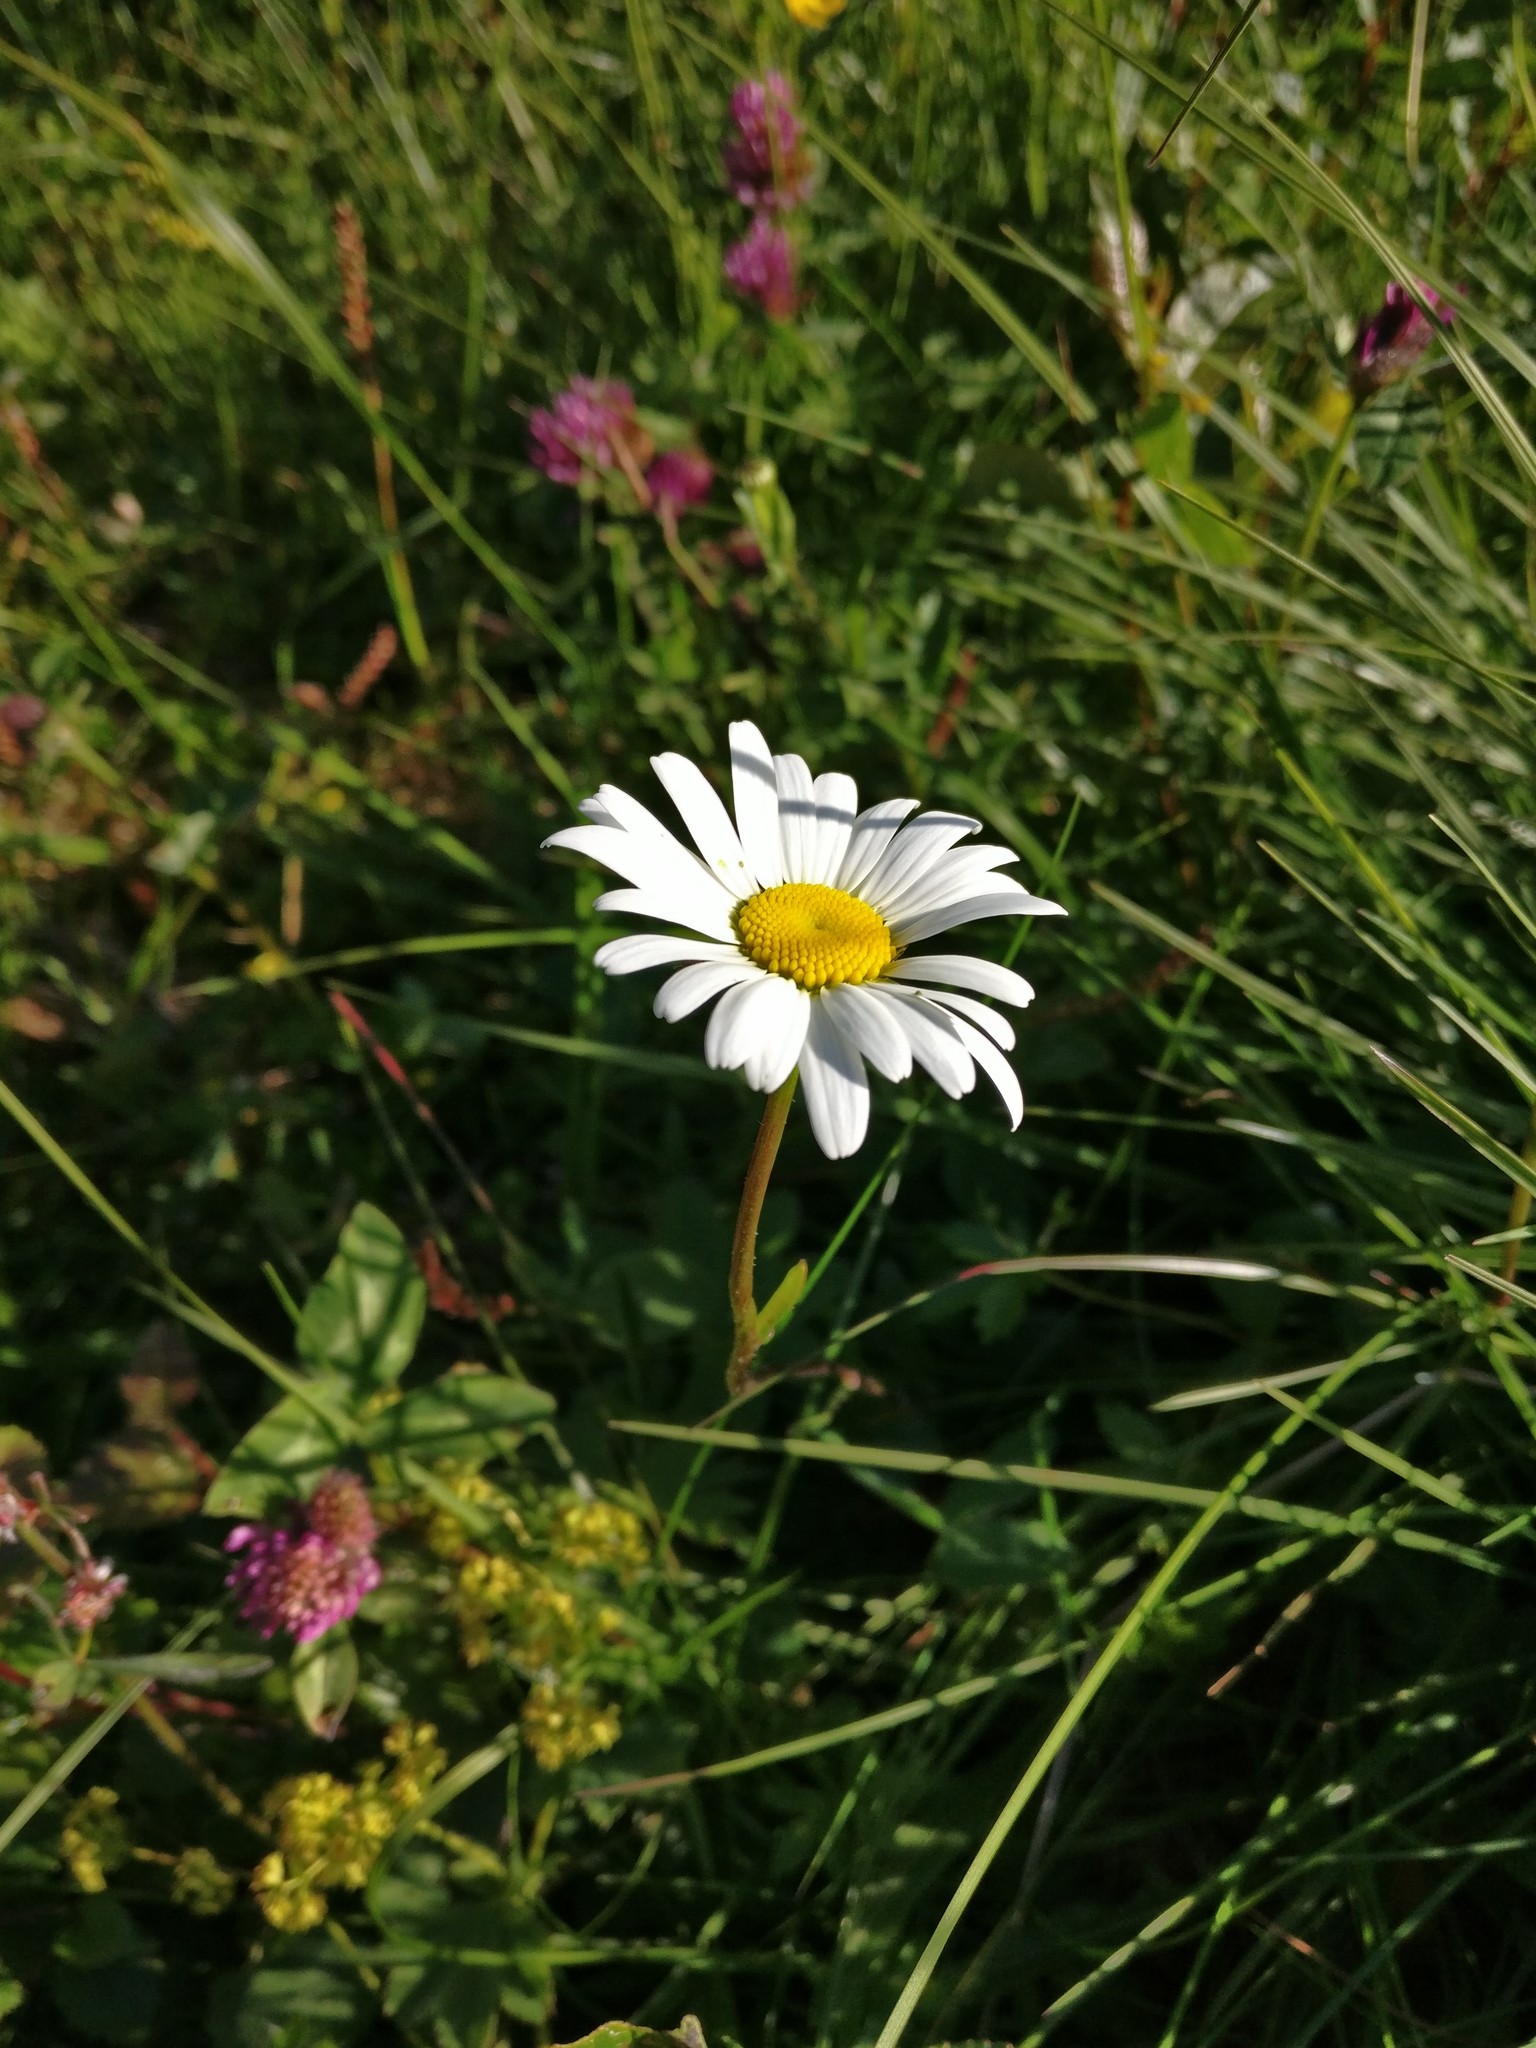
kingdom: Plantae
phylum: Tracheophyta
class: Magnoliopsida
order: Asterales
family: Asteraceae
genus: Leucanthemum
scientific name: Leucanthemum vulgare
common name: Oxeye daisy
